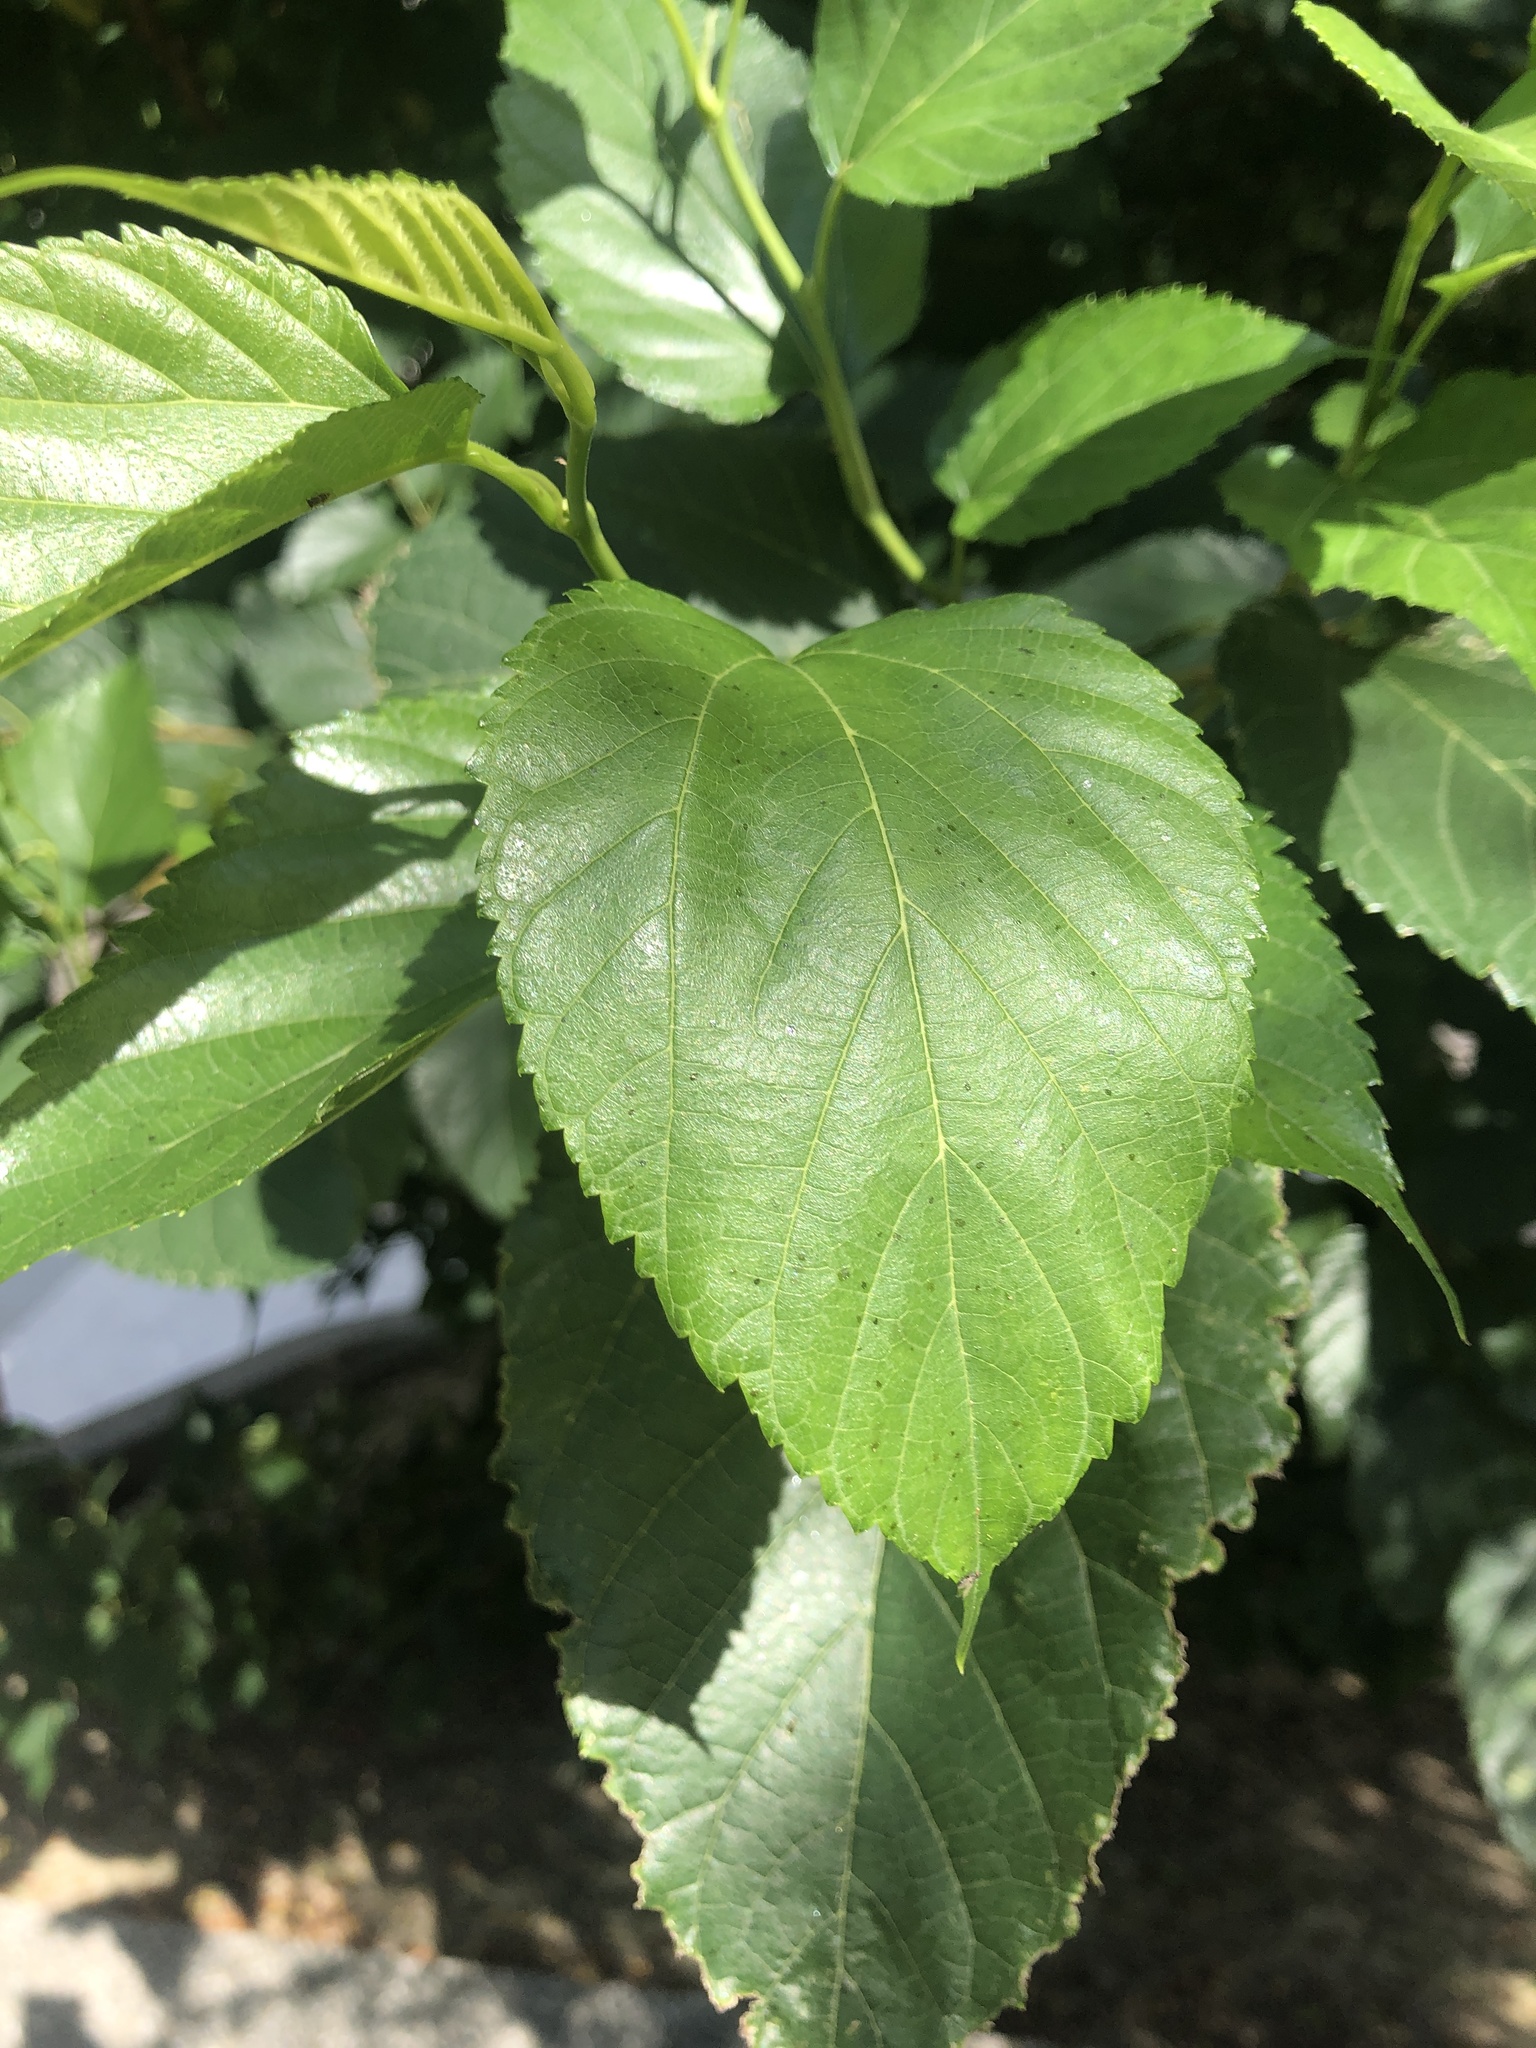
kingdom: Plantae
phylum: Tracheophyta
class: Magnoliopsida
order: Rosales
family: Moraceae
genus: Morus
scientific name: Morus indica
